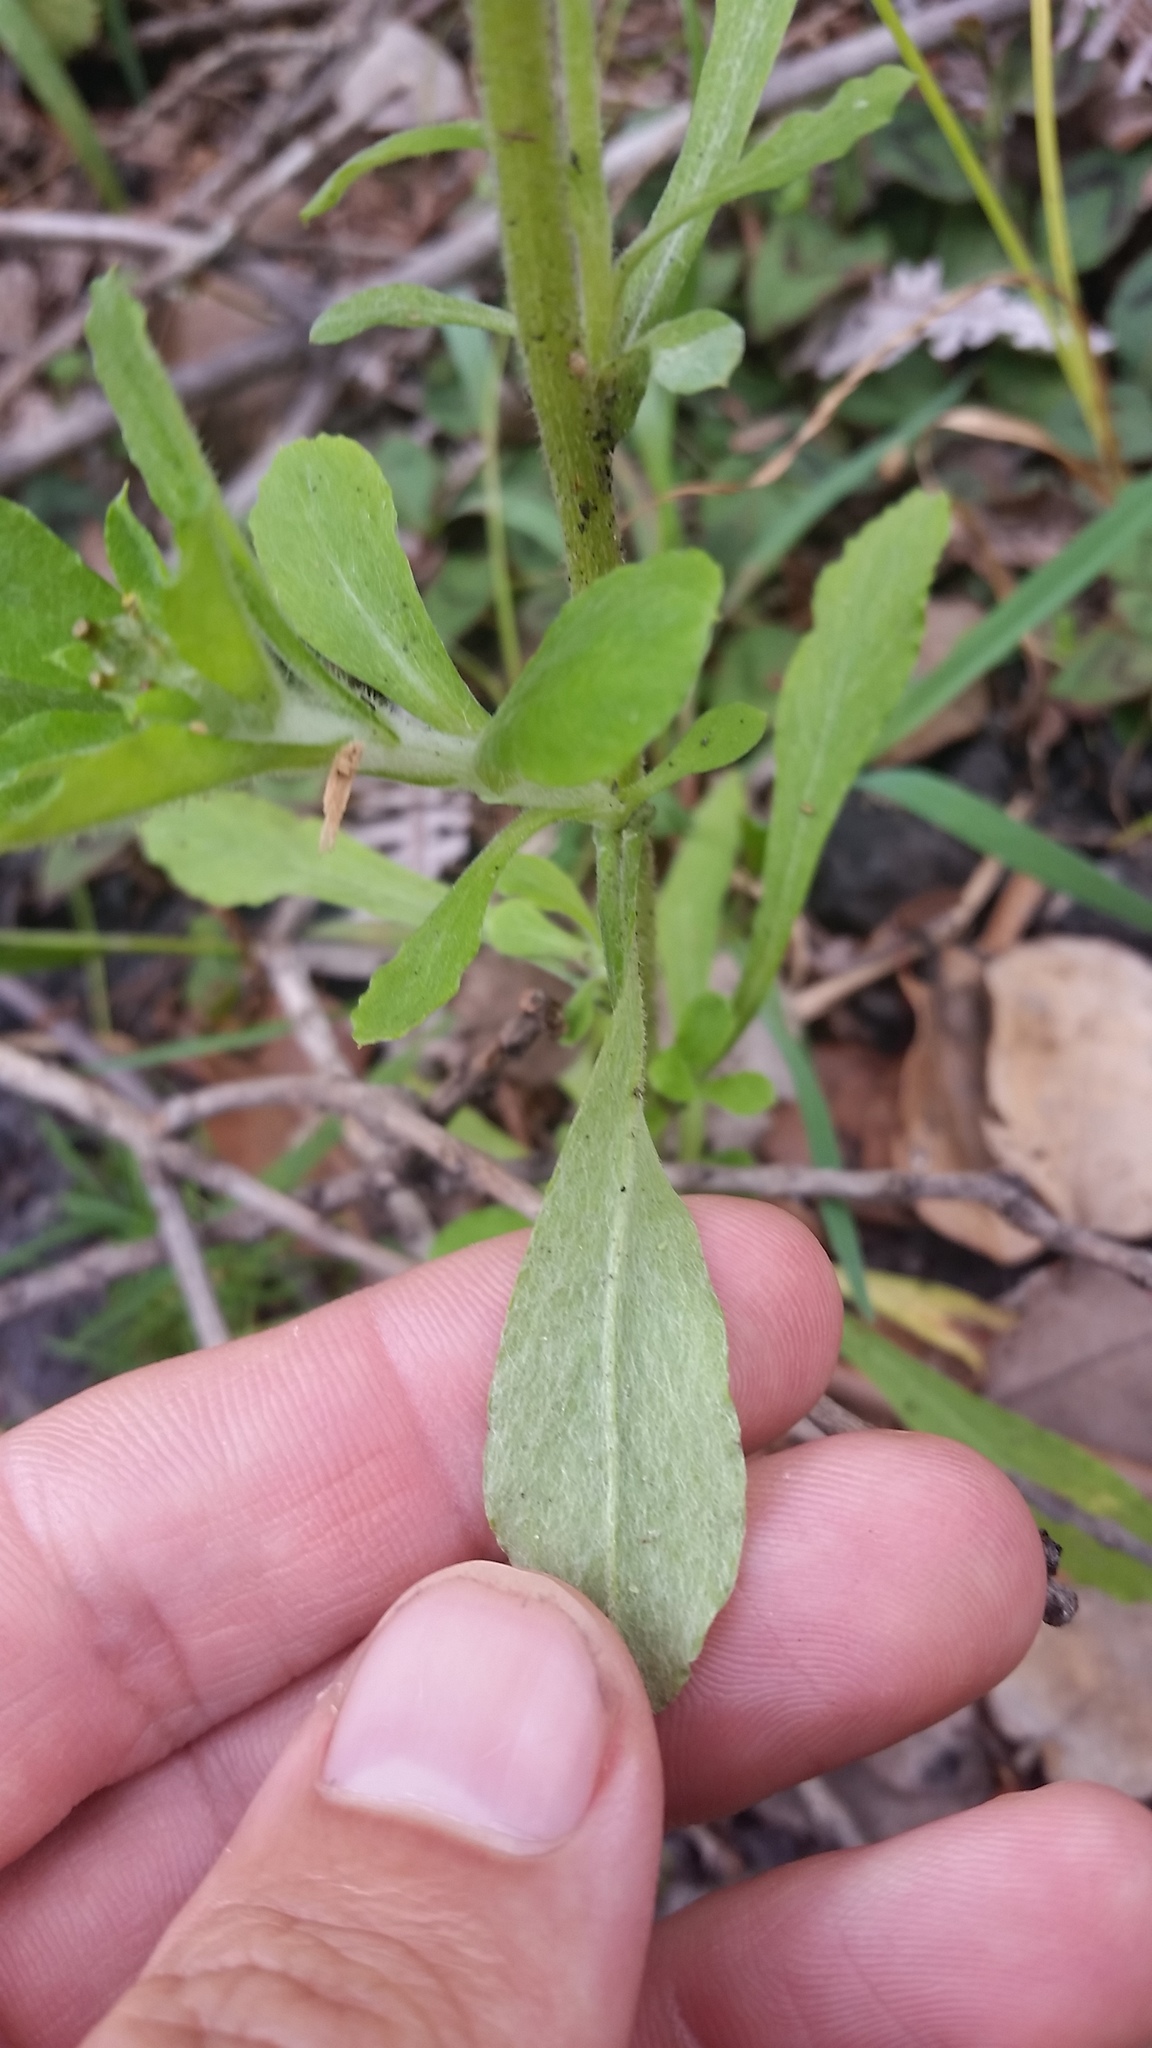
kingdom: Plantae
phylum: Tracheophyta
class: Magnoliopsida
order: Asterales
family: Asteraceae
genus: Gamochaeta
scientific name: Gamochaeta pensylvanica
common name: Pennsylvania everlasting
